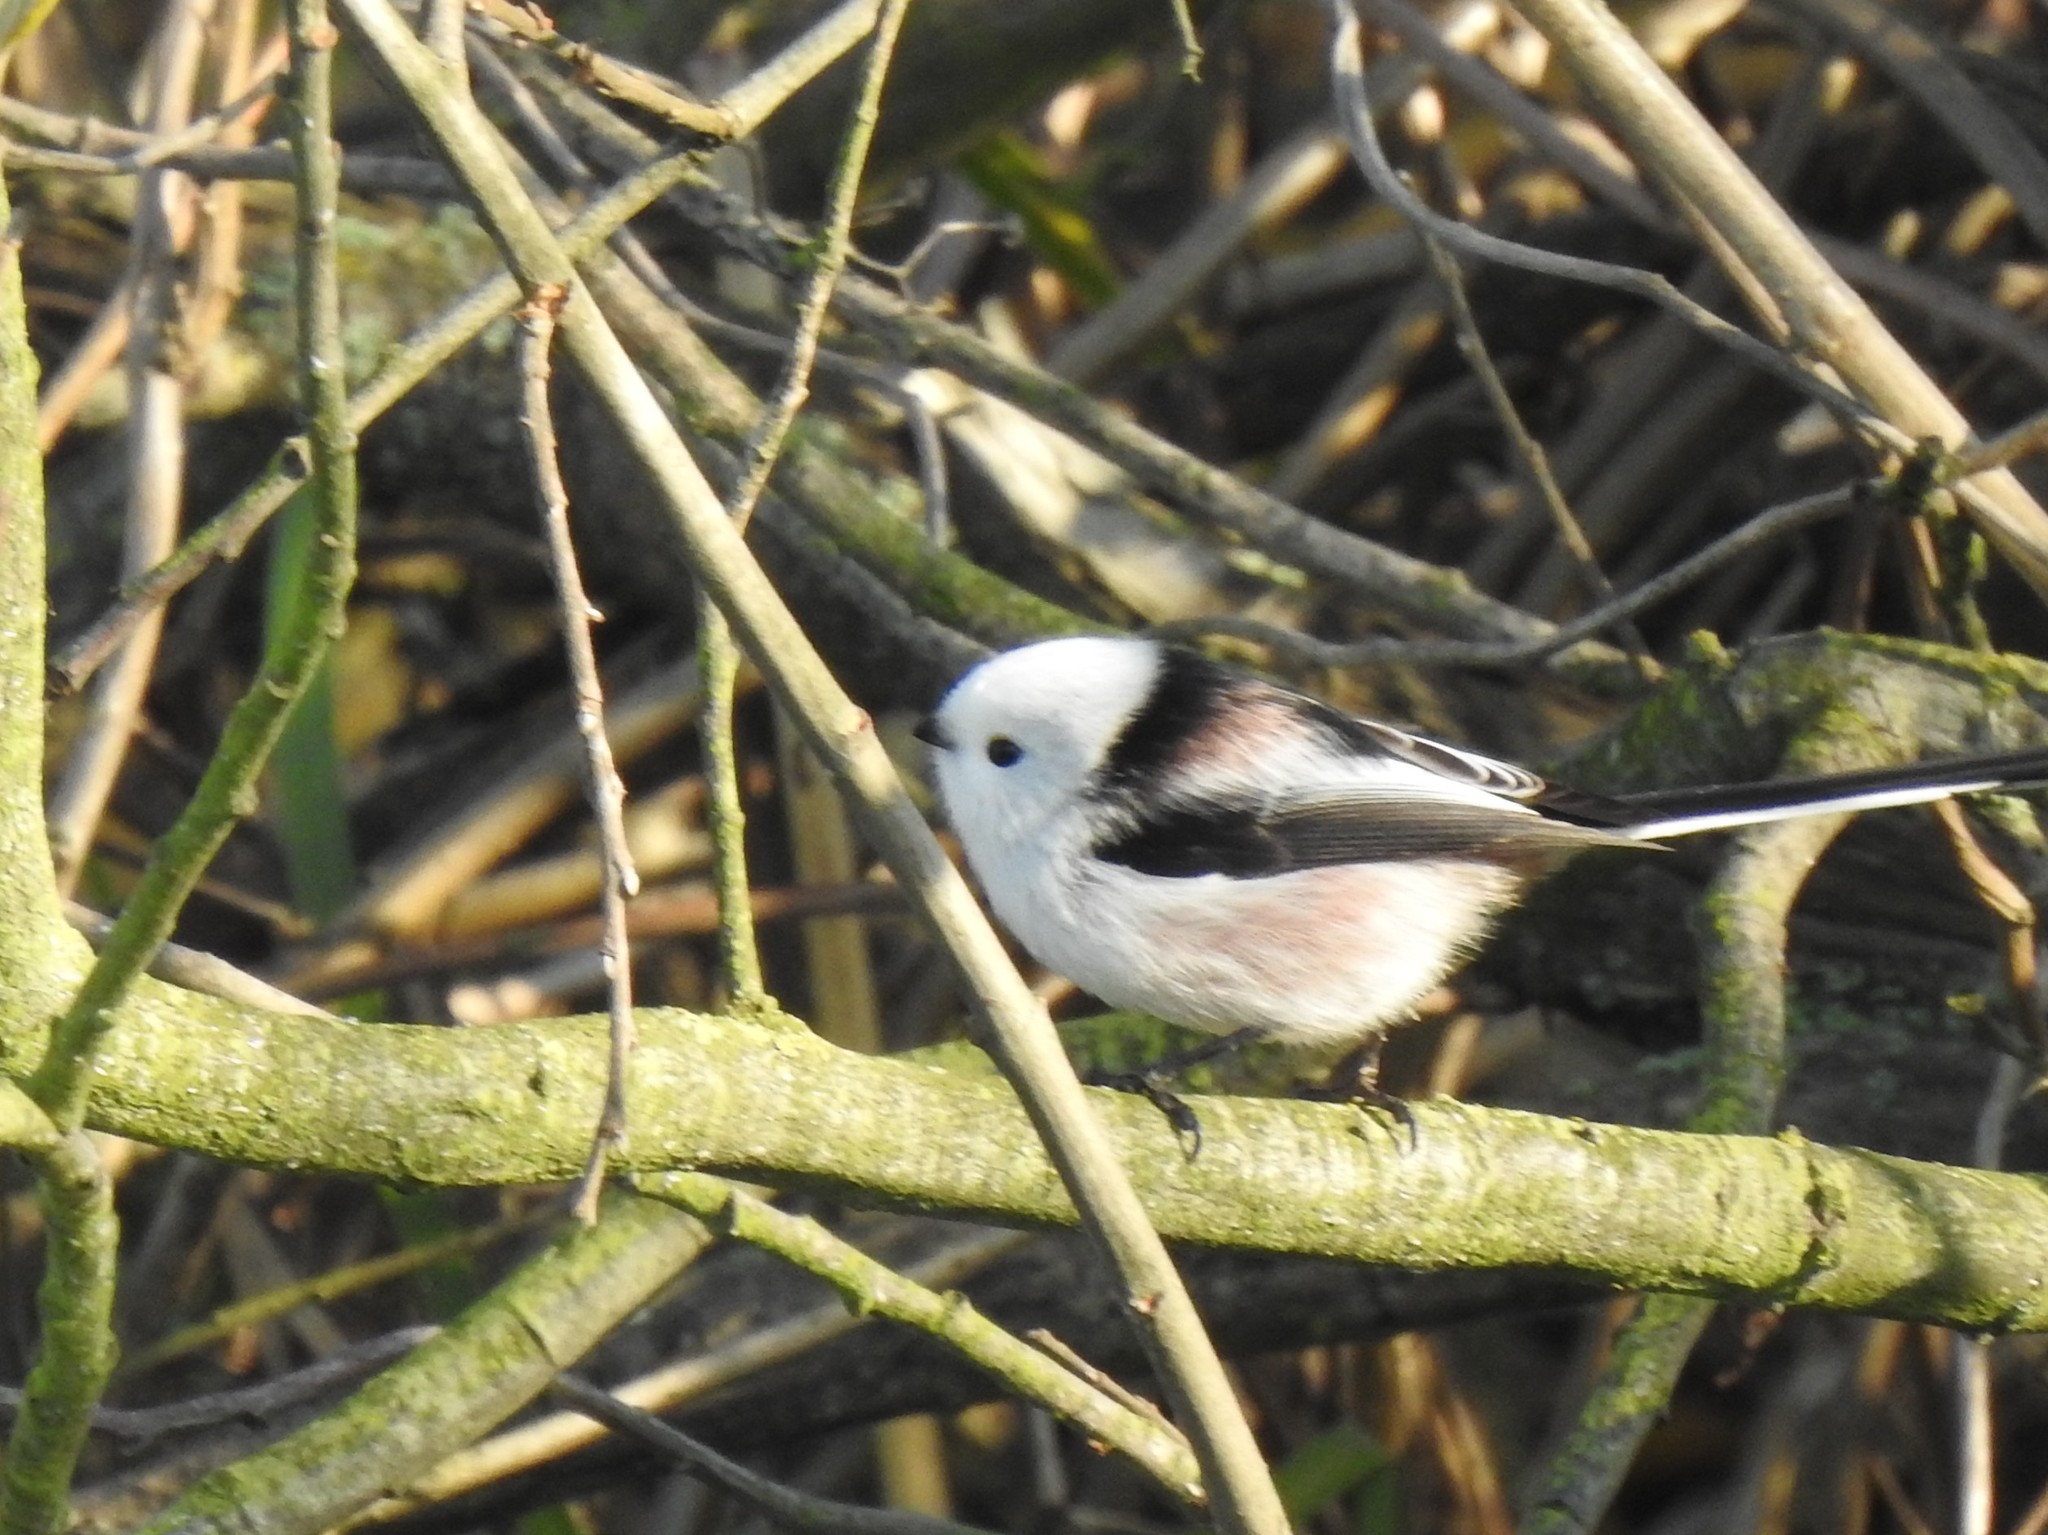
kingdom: Animalia
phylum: Chordata
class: Aves
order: Passeriformes
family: Aegithalidae
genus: Aegithalos
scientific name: Aegithalos caudatus
